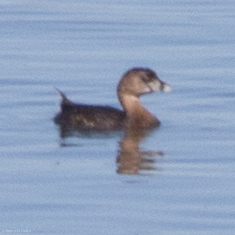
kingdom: Animalia
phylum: Chordata
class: Aves
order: Podicipediformes
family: Podicipedidae
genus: Podilymbus
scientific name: Podilymbus podiceps
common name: Pied-billed grebe
